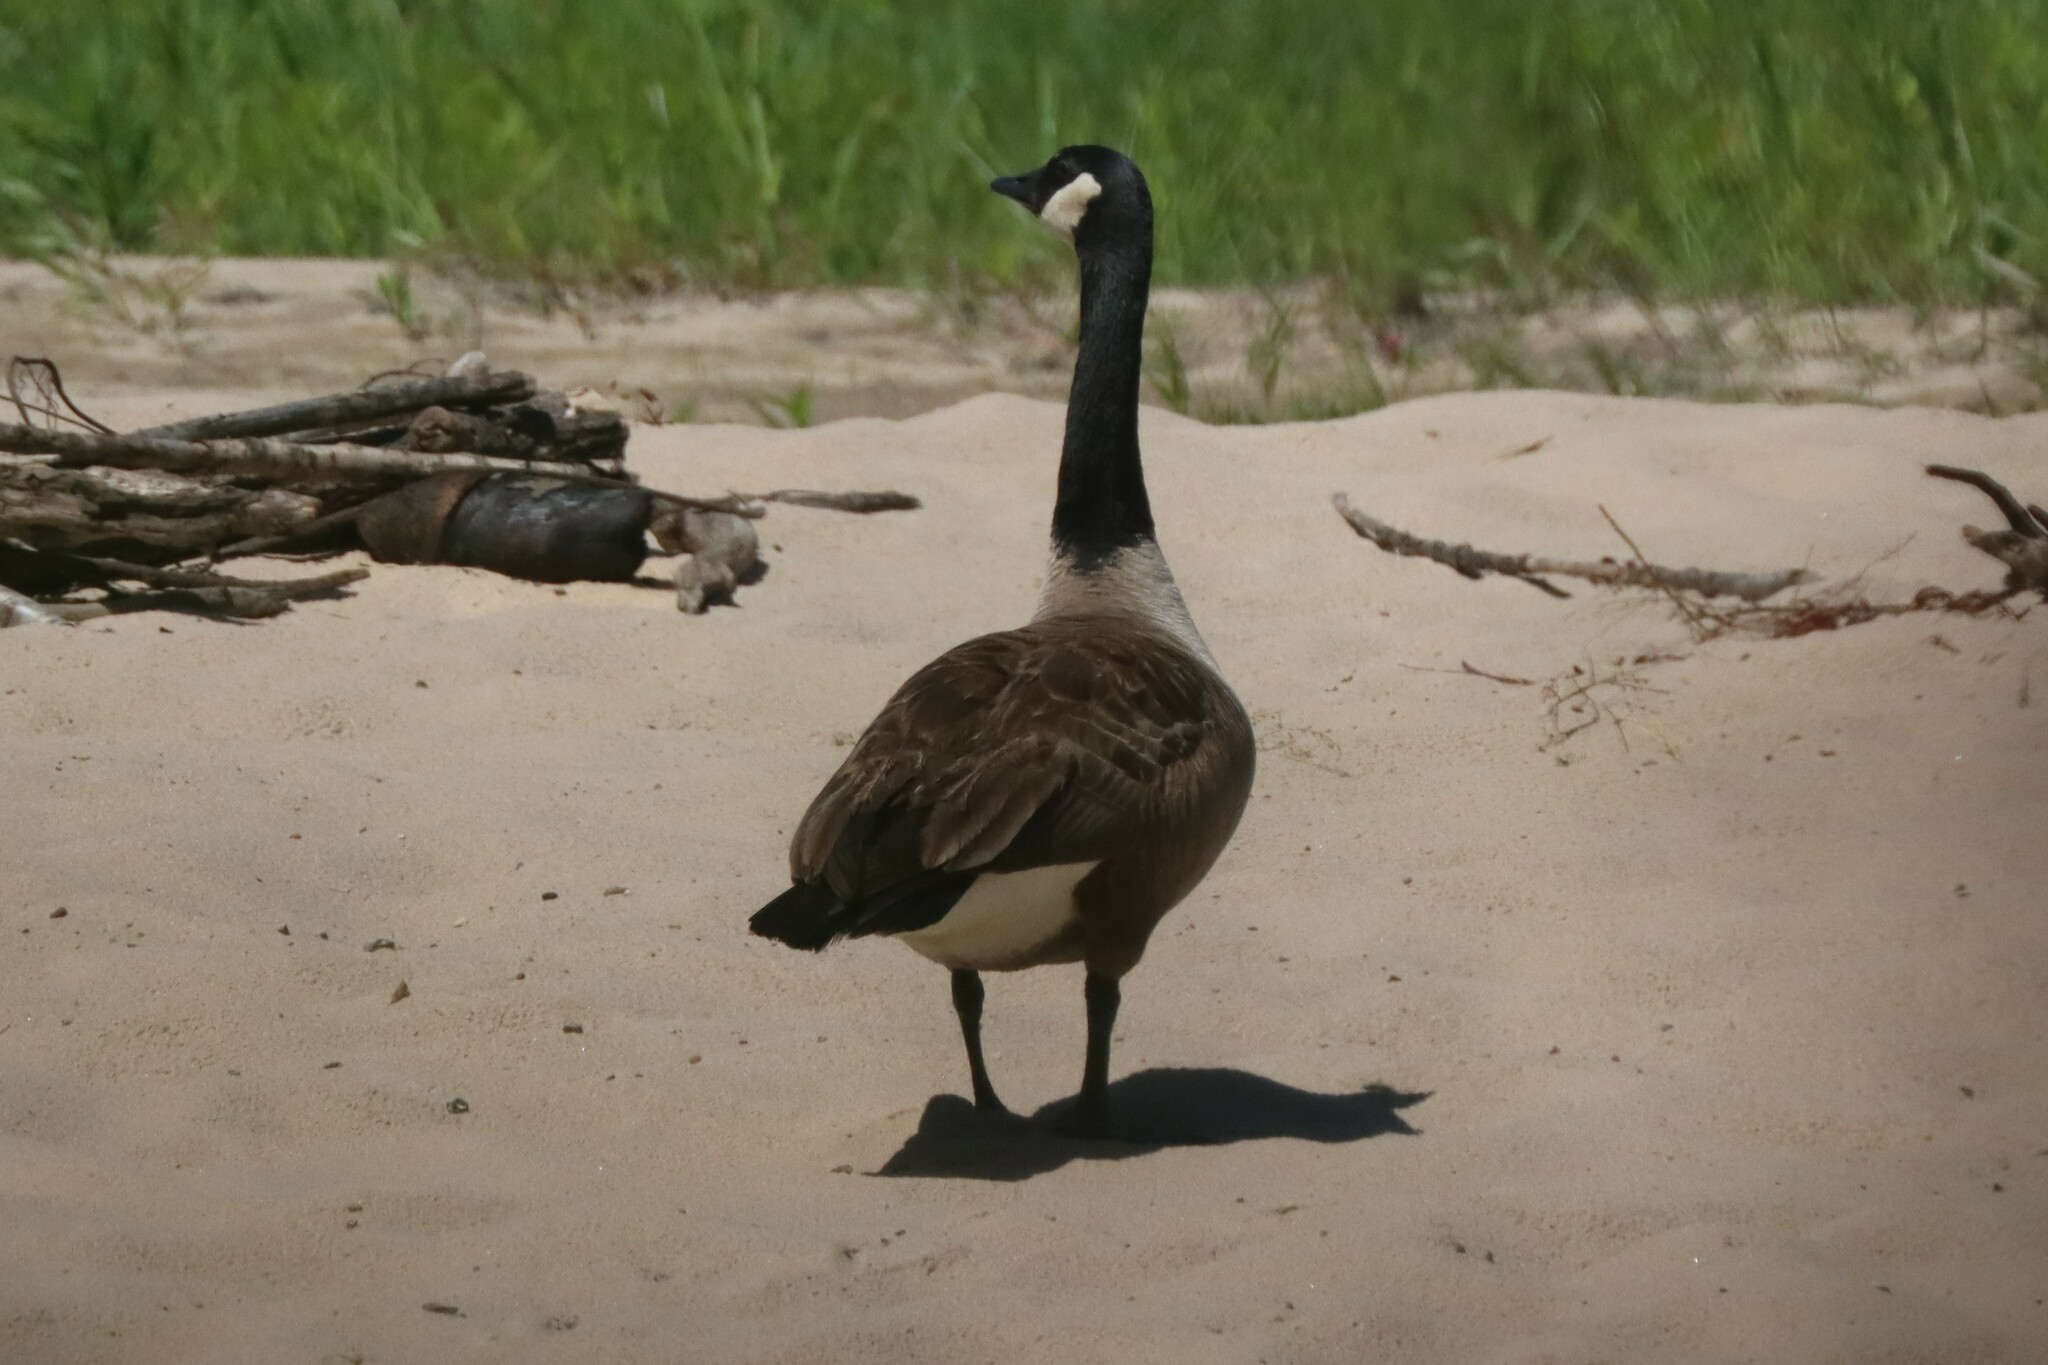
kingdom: Animalia
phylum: Chordata
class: Aves
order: Anseriformes
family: Anatidae
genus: Branta
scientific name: Branta canadensis
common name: Canada goose
